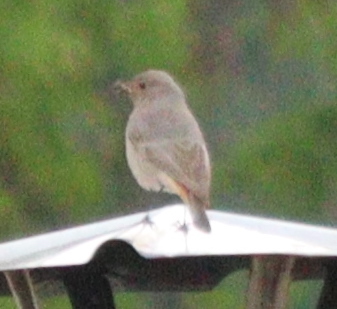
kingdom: Animalia
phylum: Chordata
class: Aves
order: Passeriformes
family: Muscicapidae
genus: Phoenicurus
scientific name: Phoenicurus ochruros
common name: Black redstart
